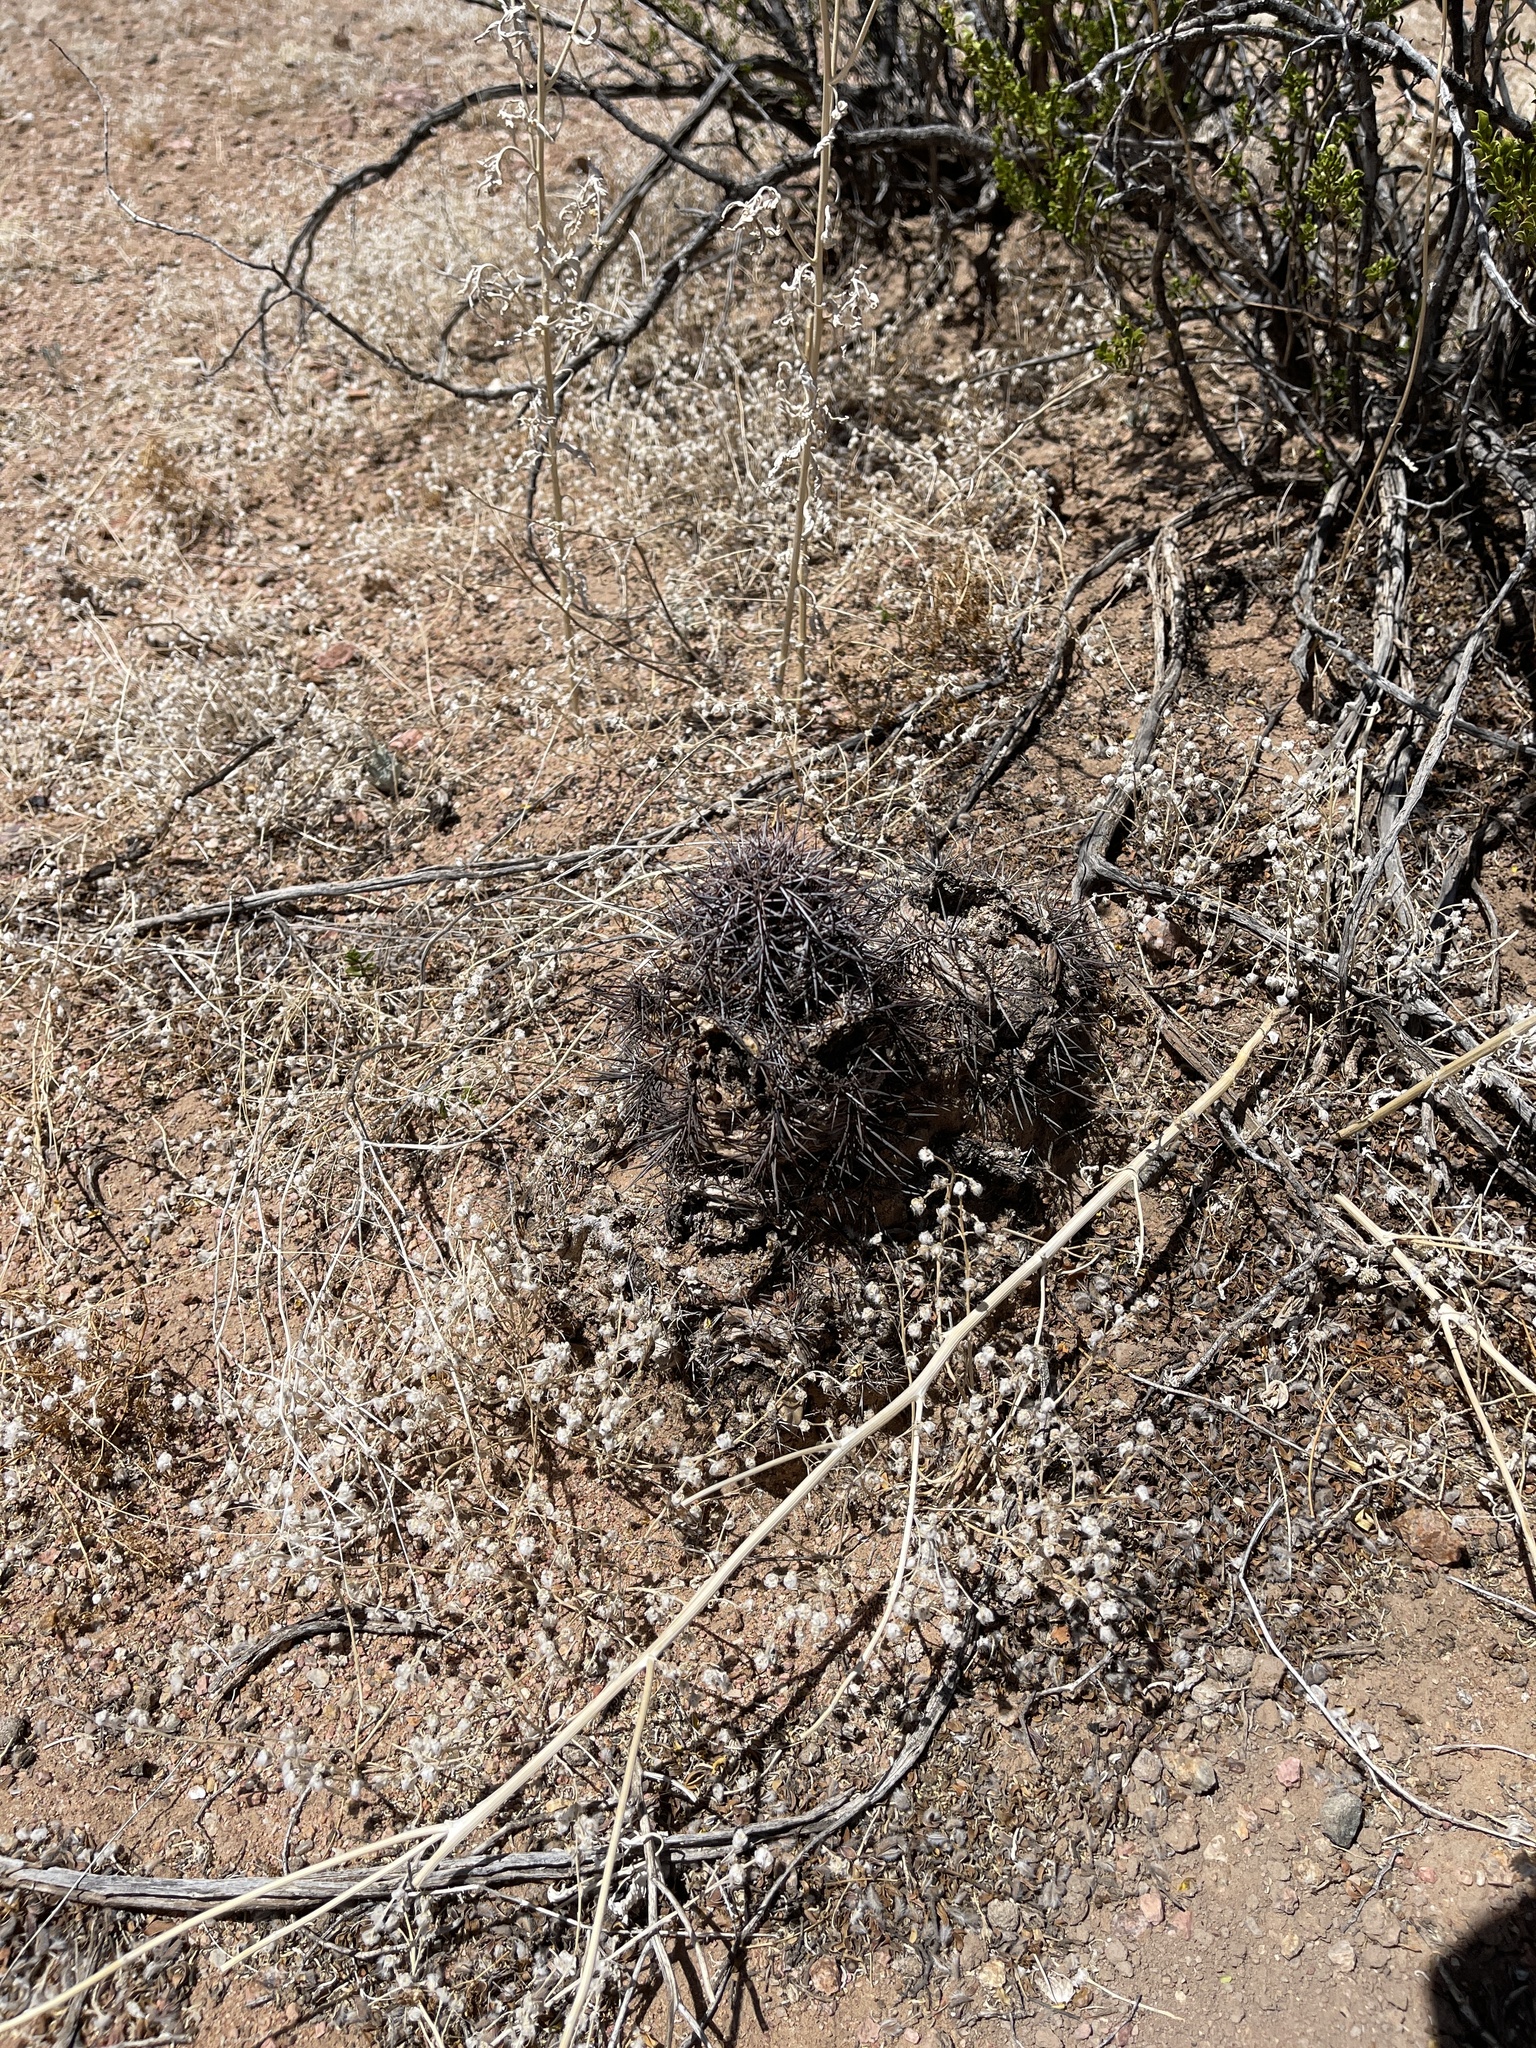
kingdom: Plantae
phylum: Tracheophyta
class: Magnoliopsida
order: Caryophyllales
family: Cactaceae
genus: Echinocereus
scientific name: Echinocereus coccineus
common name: Scarlet hedgehog cactus
